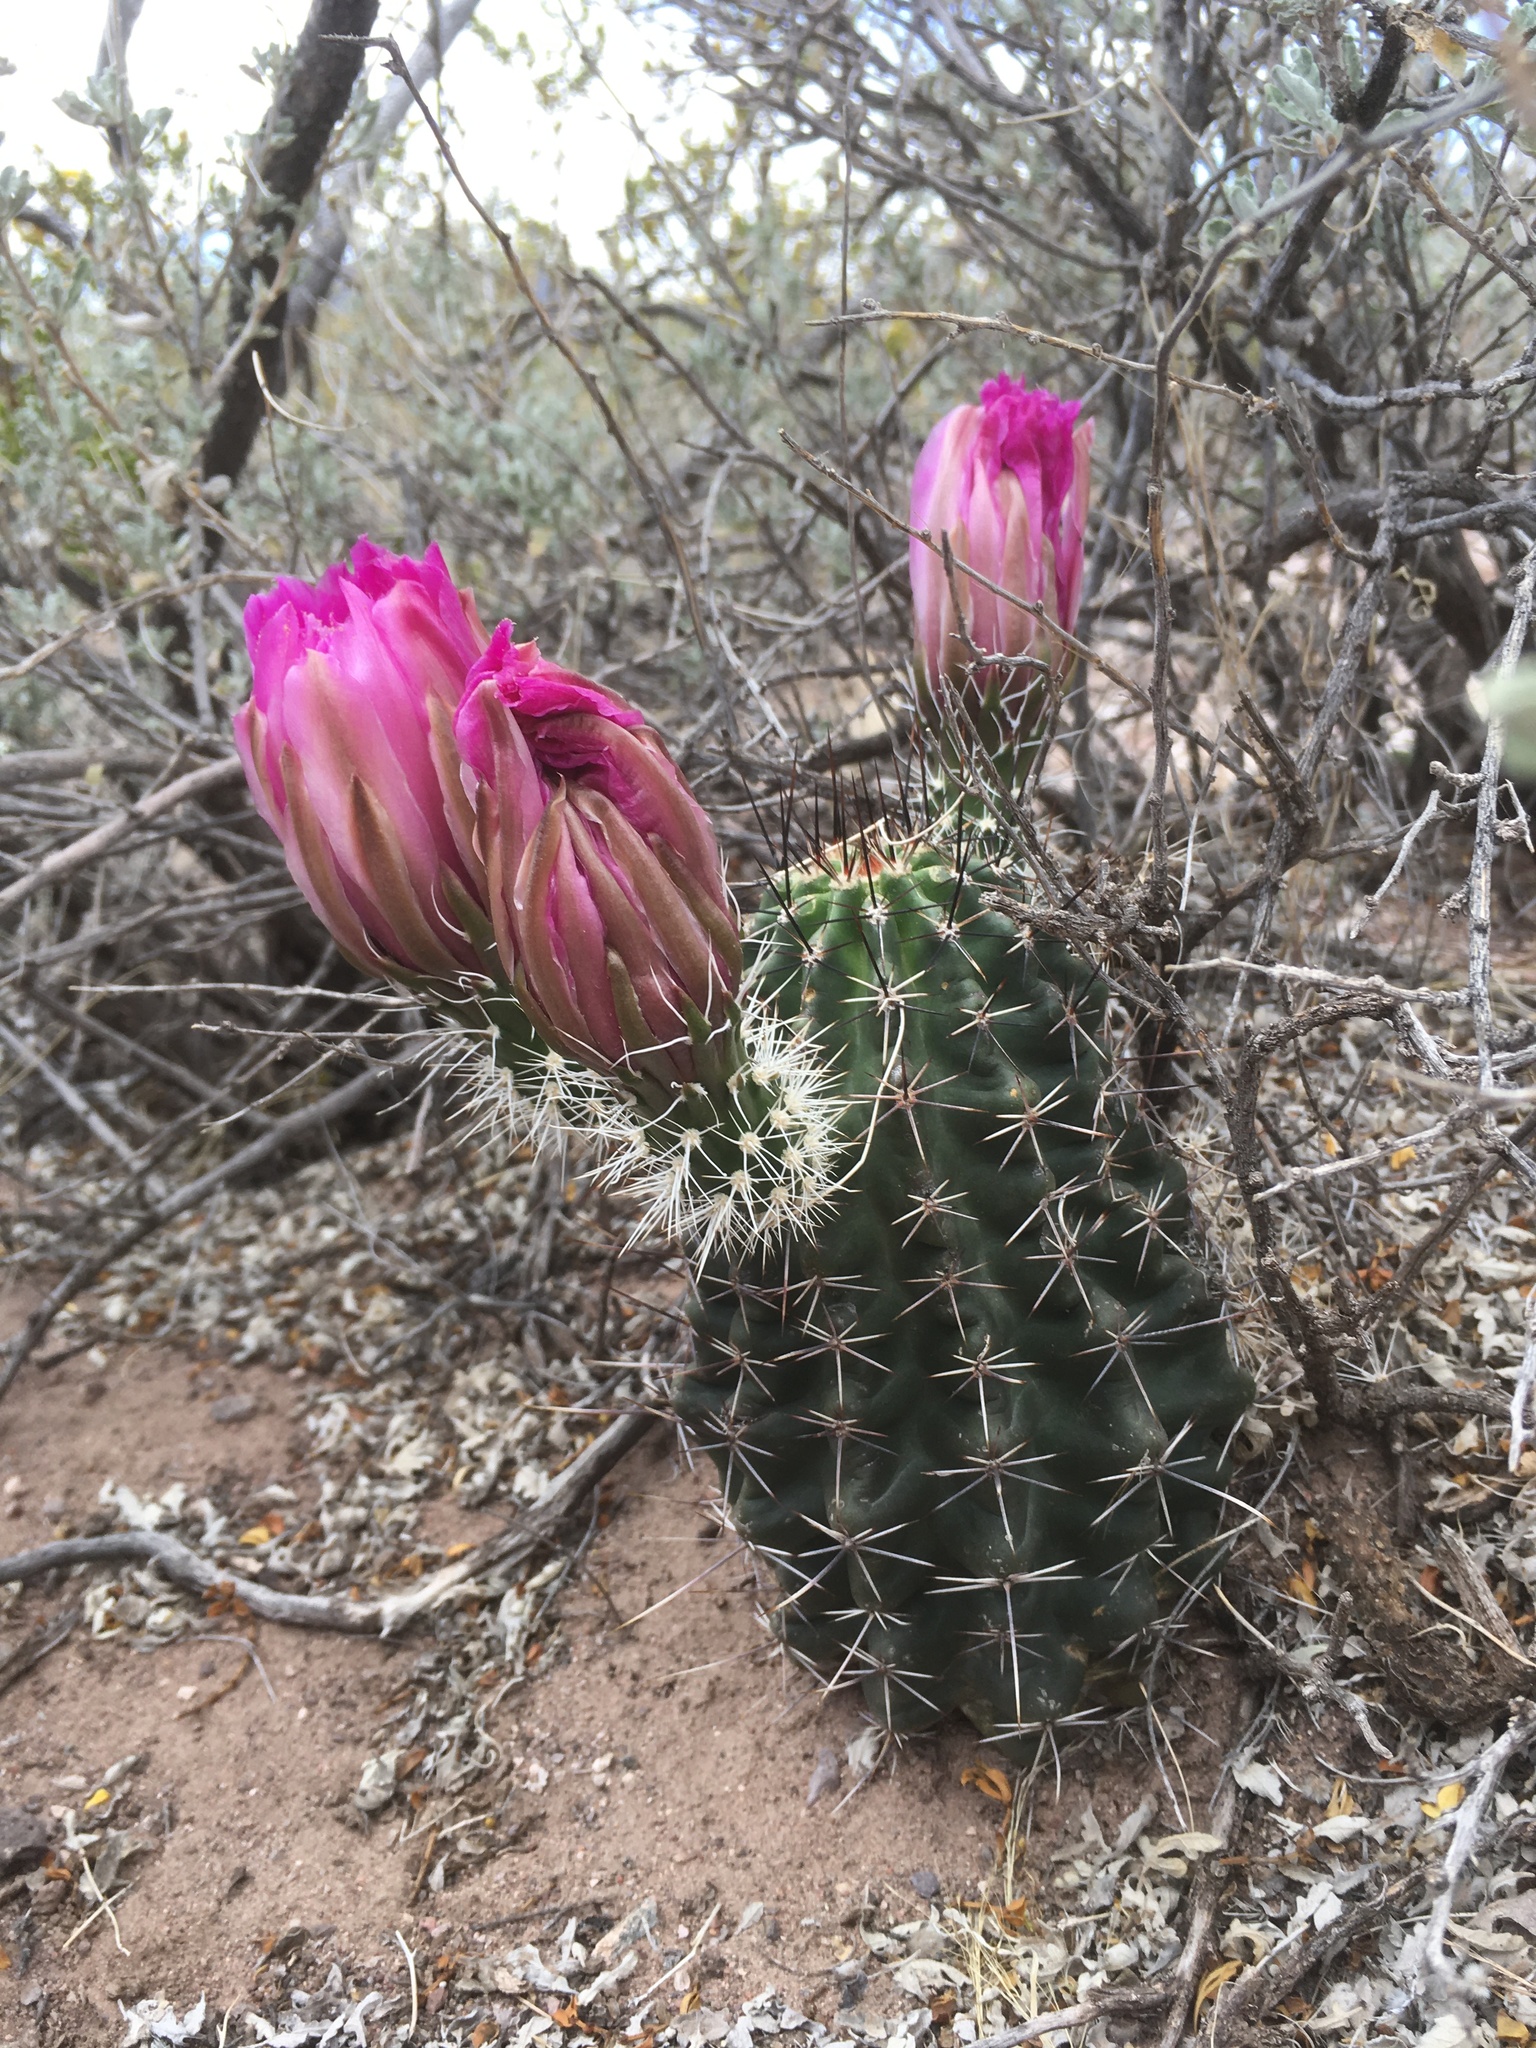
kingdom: Plantae
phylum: Tracheophyta
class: Magnoliopsida
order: Caryophyllales
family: Cactaceae
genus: Echinocereus
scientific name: Echinocereus fendleri
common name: Fendler's hedgehog cactus
